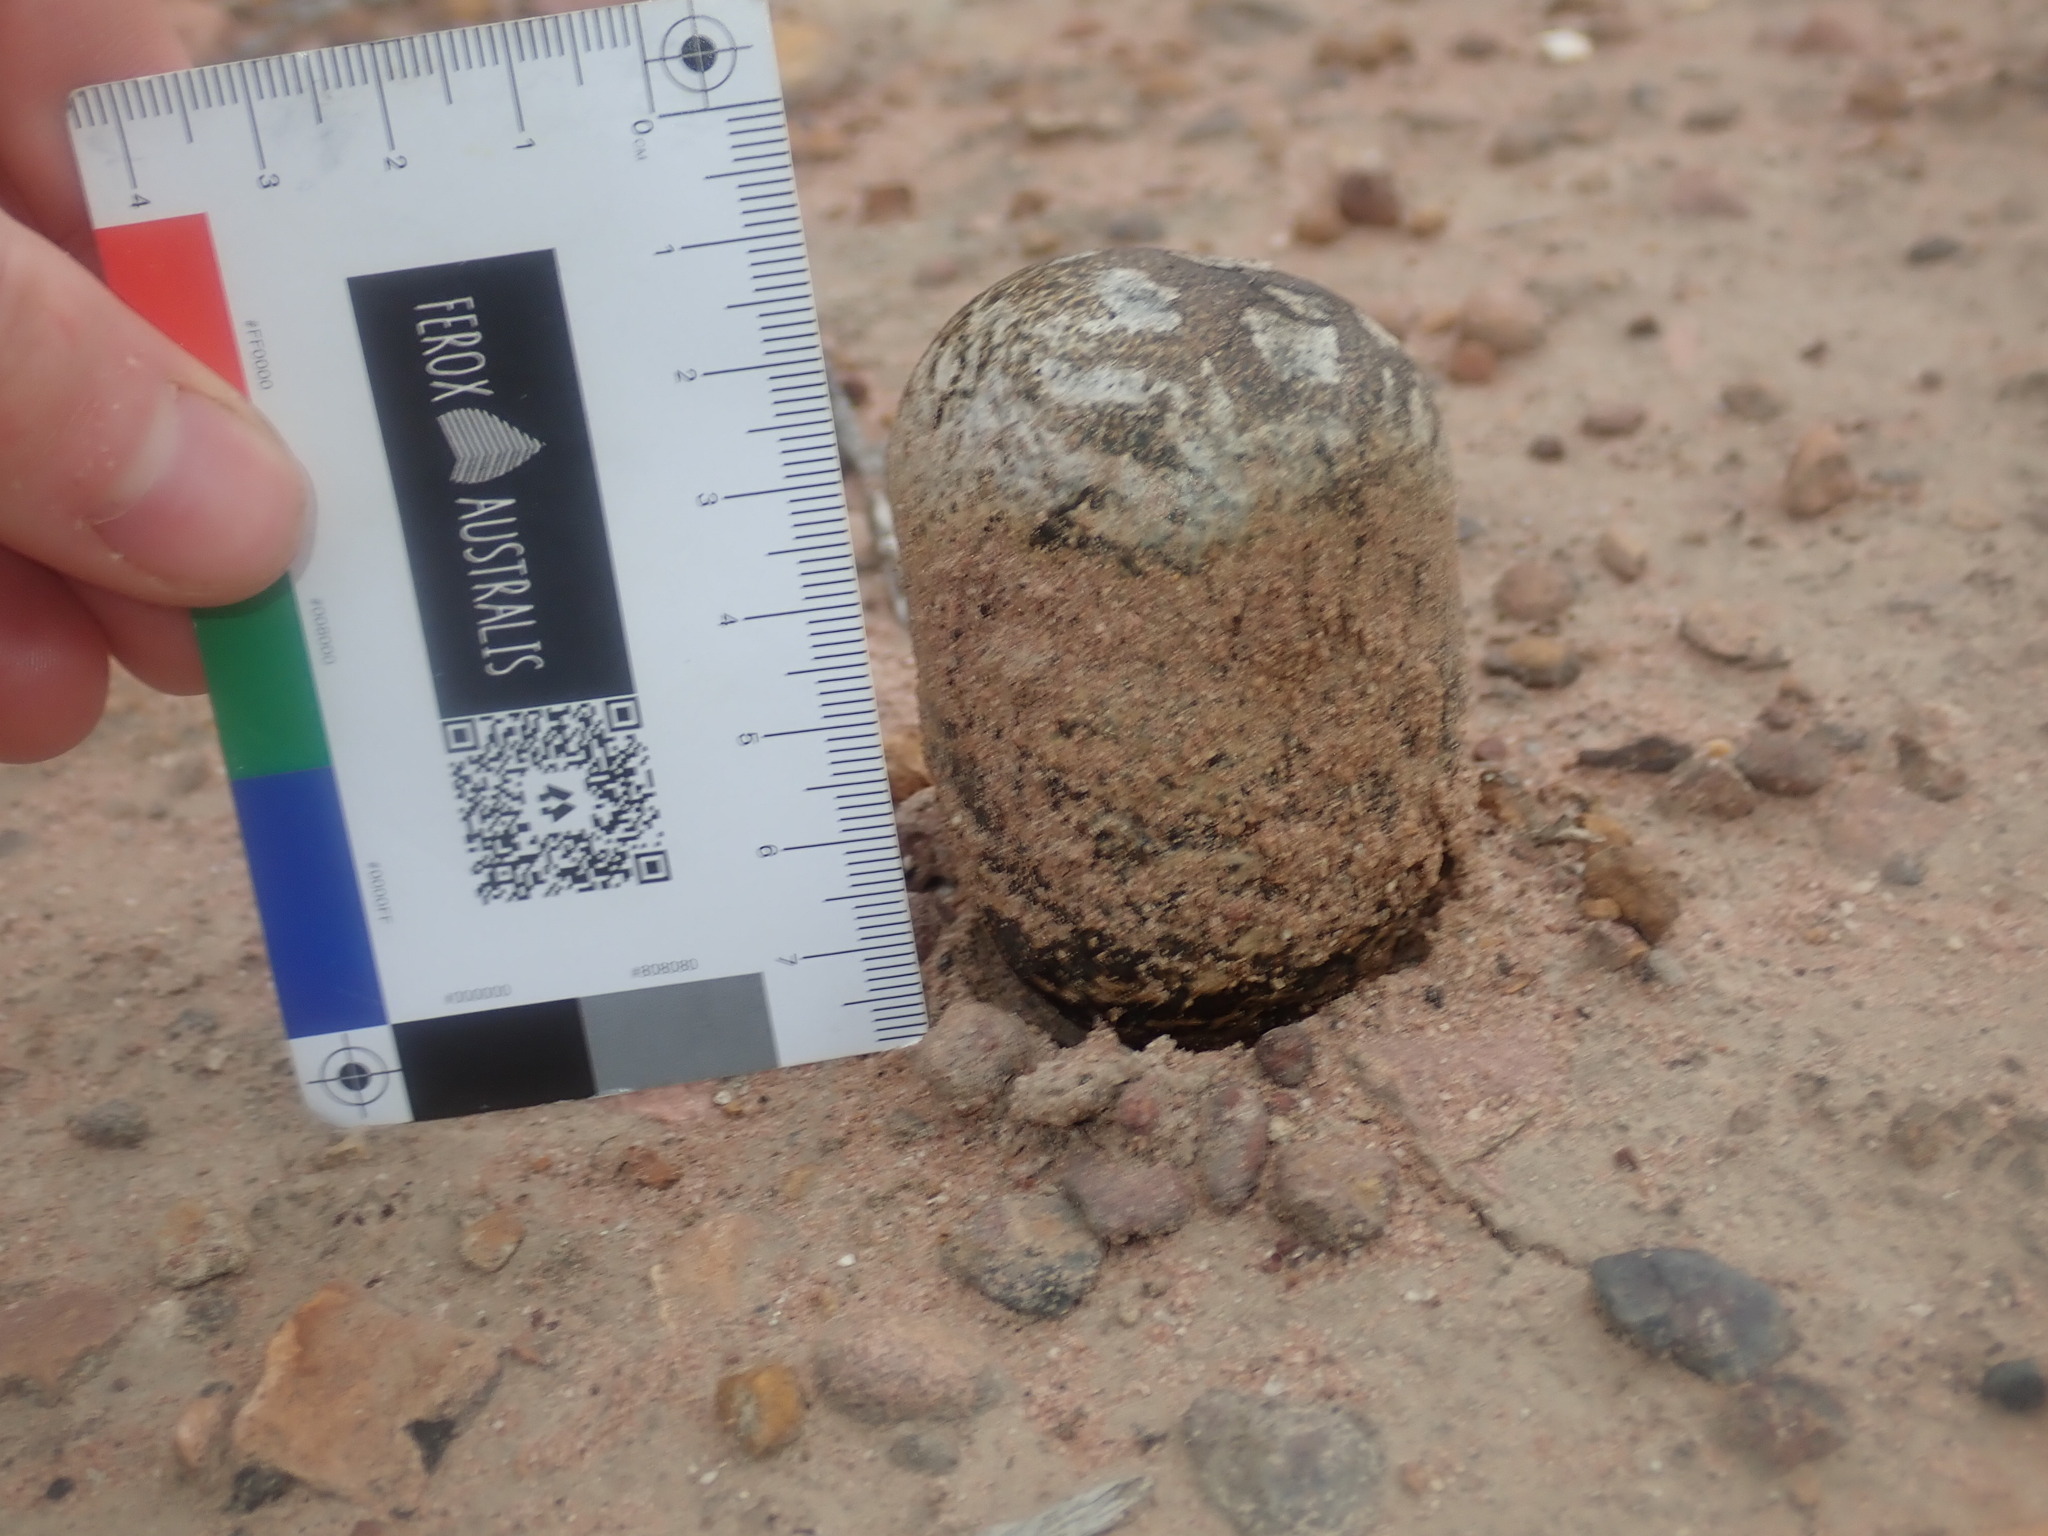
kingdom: Fungi
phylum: Basidiomycota
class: Agaricomycetes
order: Boletales
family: Sclerodermataceae
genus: Pisolithus
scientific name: Pisolithus arhizus
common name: Dyeball
